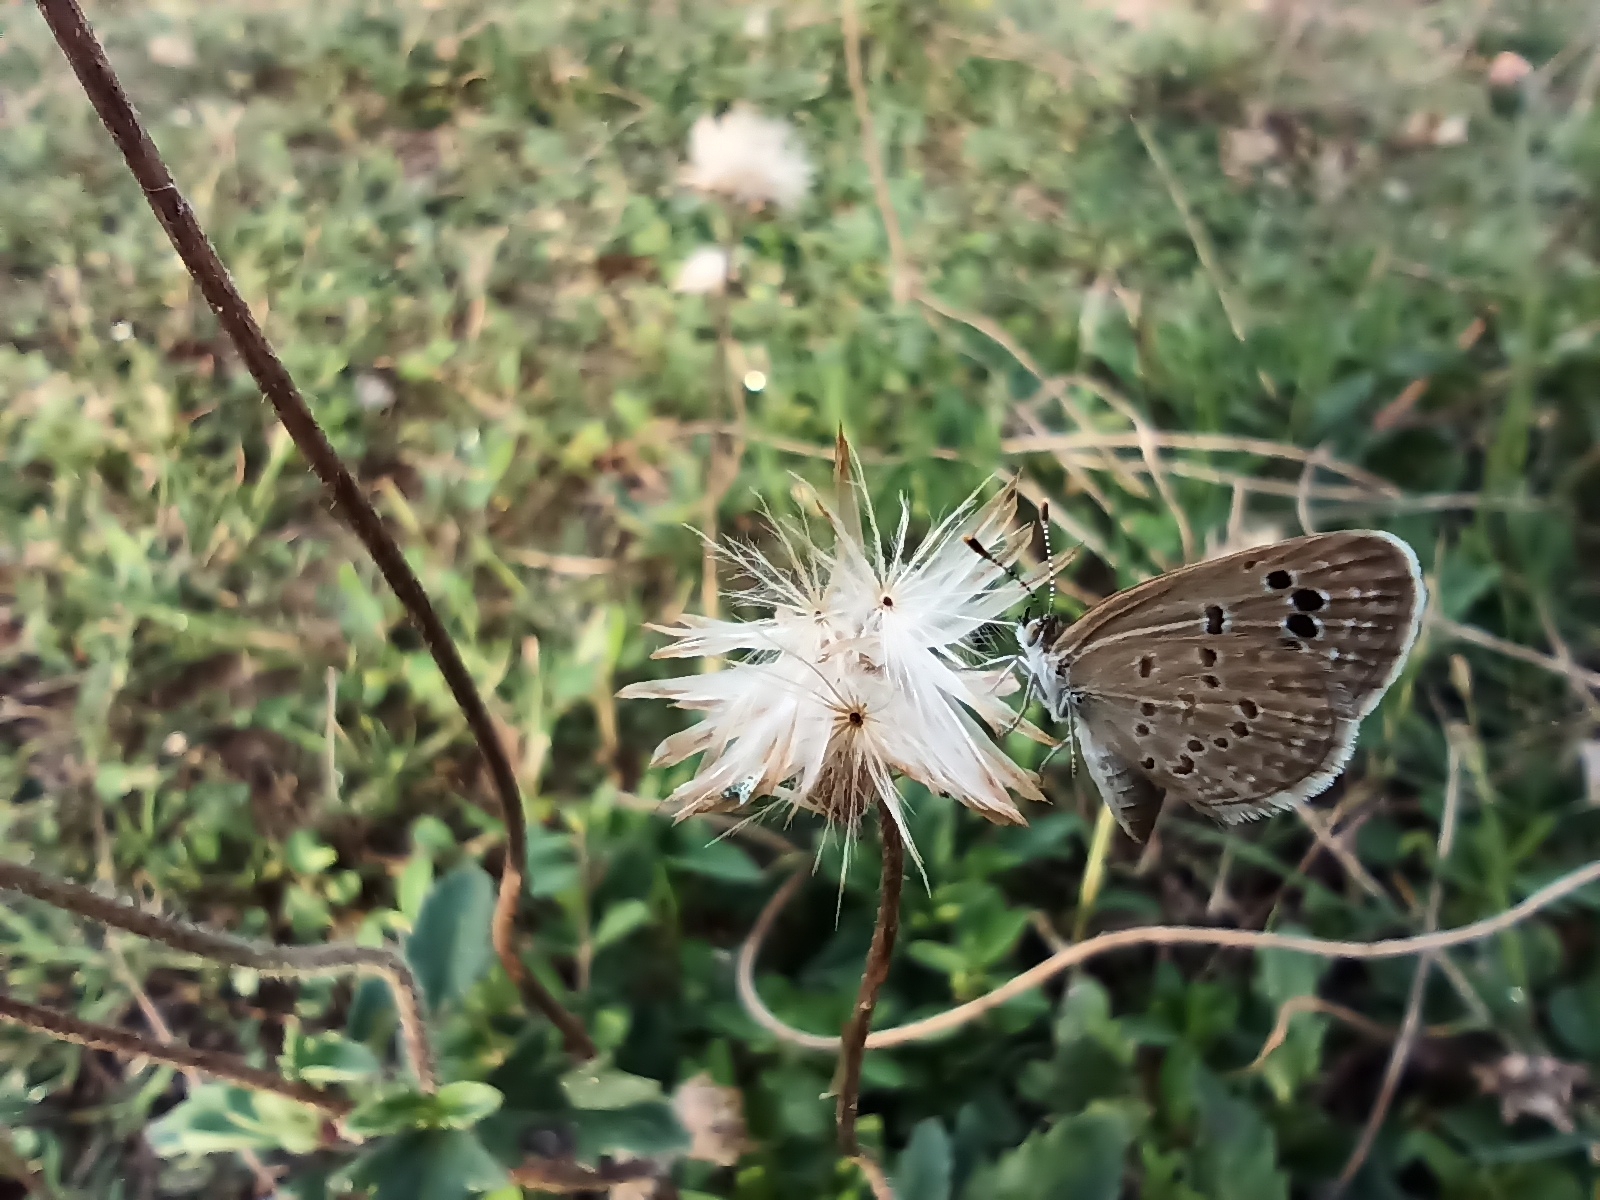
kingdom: Animalia
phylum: Arthropoda
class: Insecta
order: Lepidoptera
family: Lycaenidae
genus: Zizina
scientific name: Zizina otis
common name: Lesser grass blue
